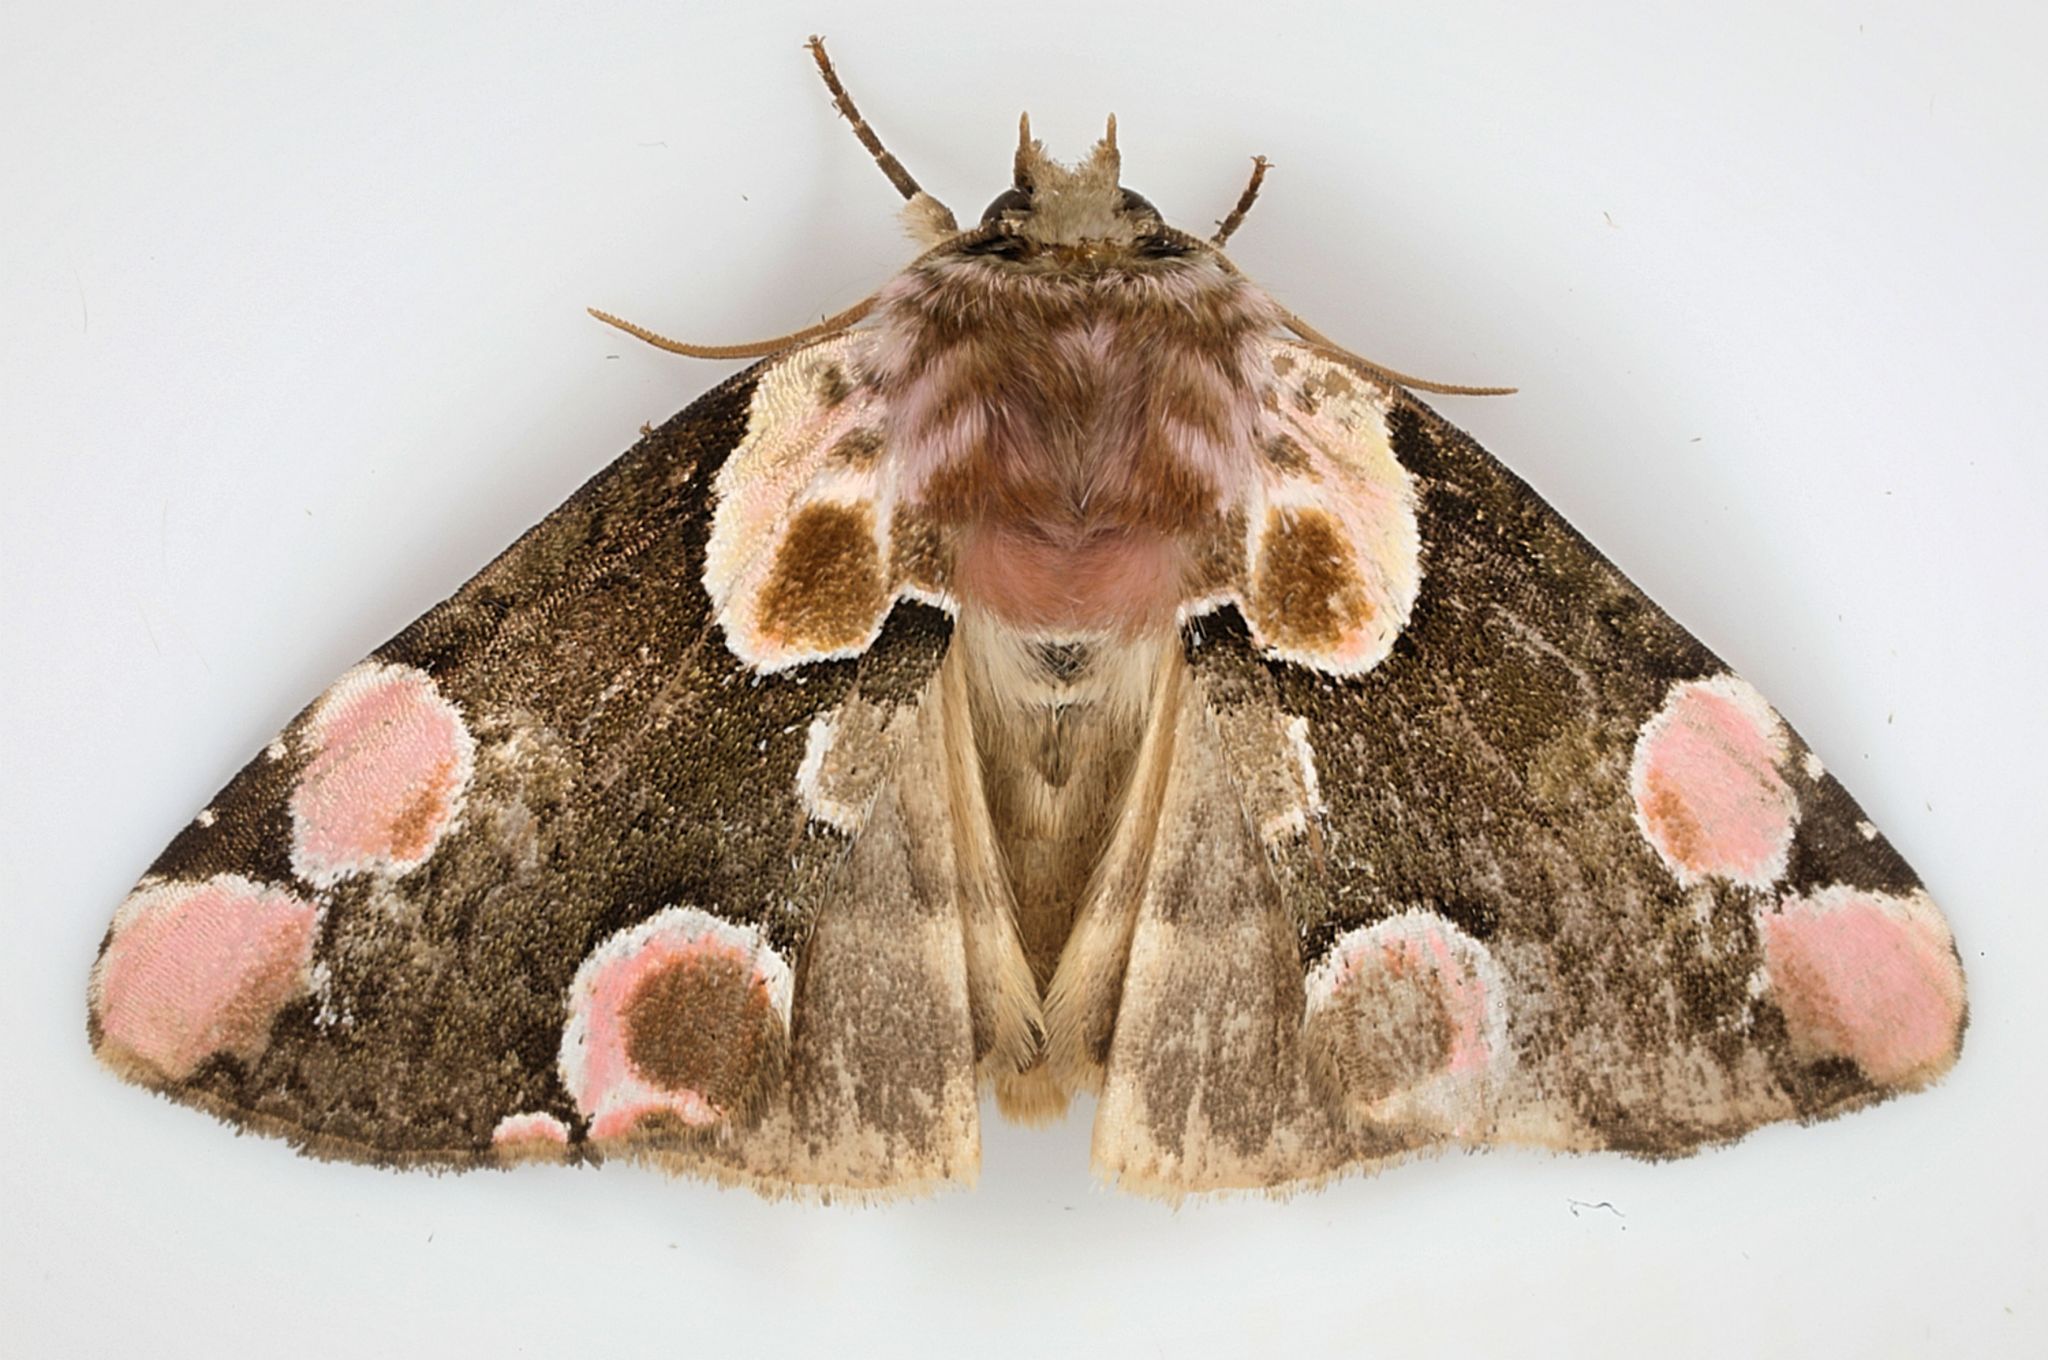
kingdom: Animalia
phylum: Arthropoda
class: Insecta
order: Lepidoptera
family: Drepanidae
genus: Thyatira
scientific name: Thyatira batis
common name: Peach blossom
